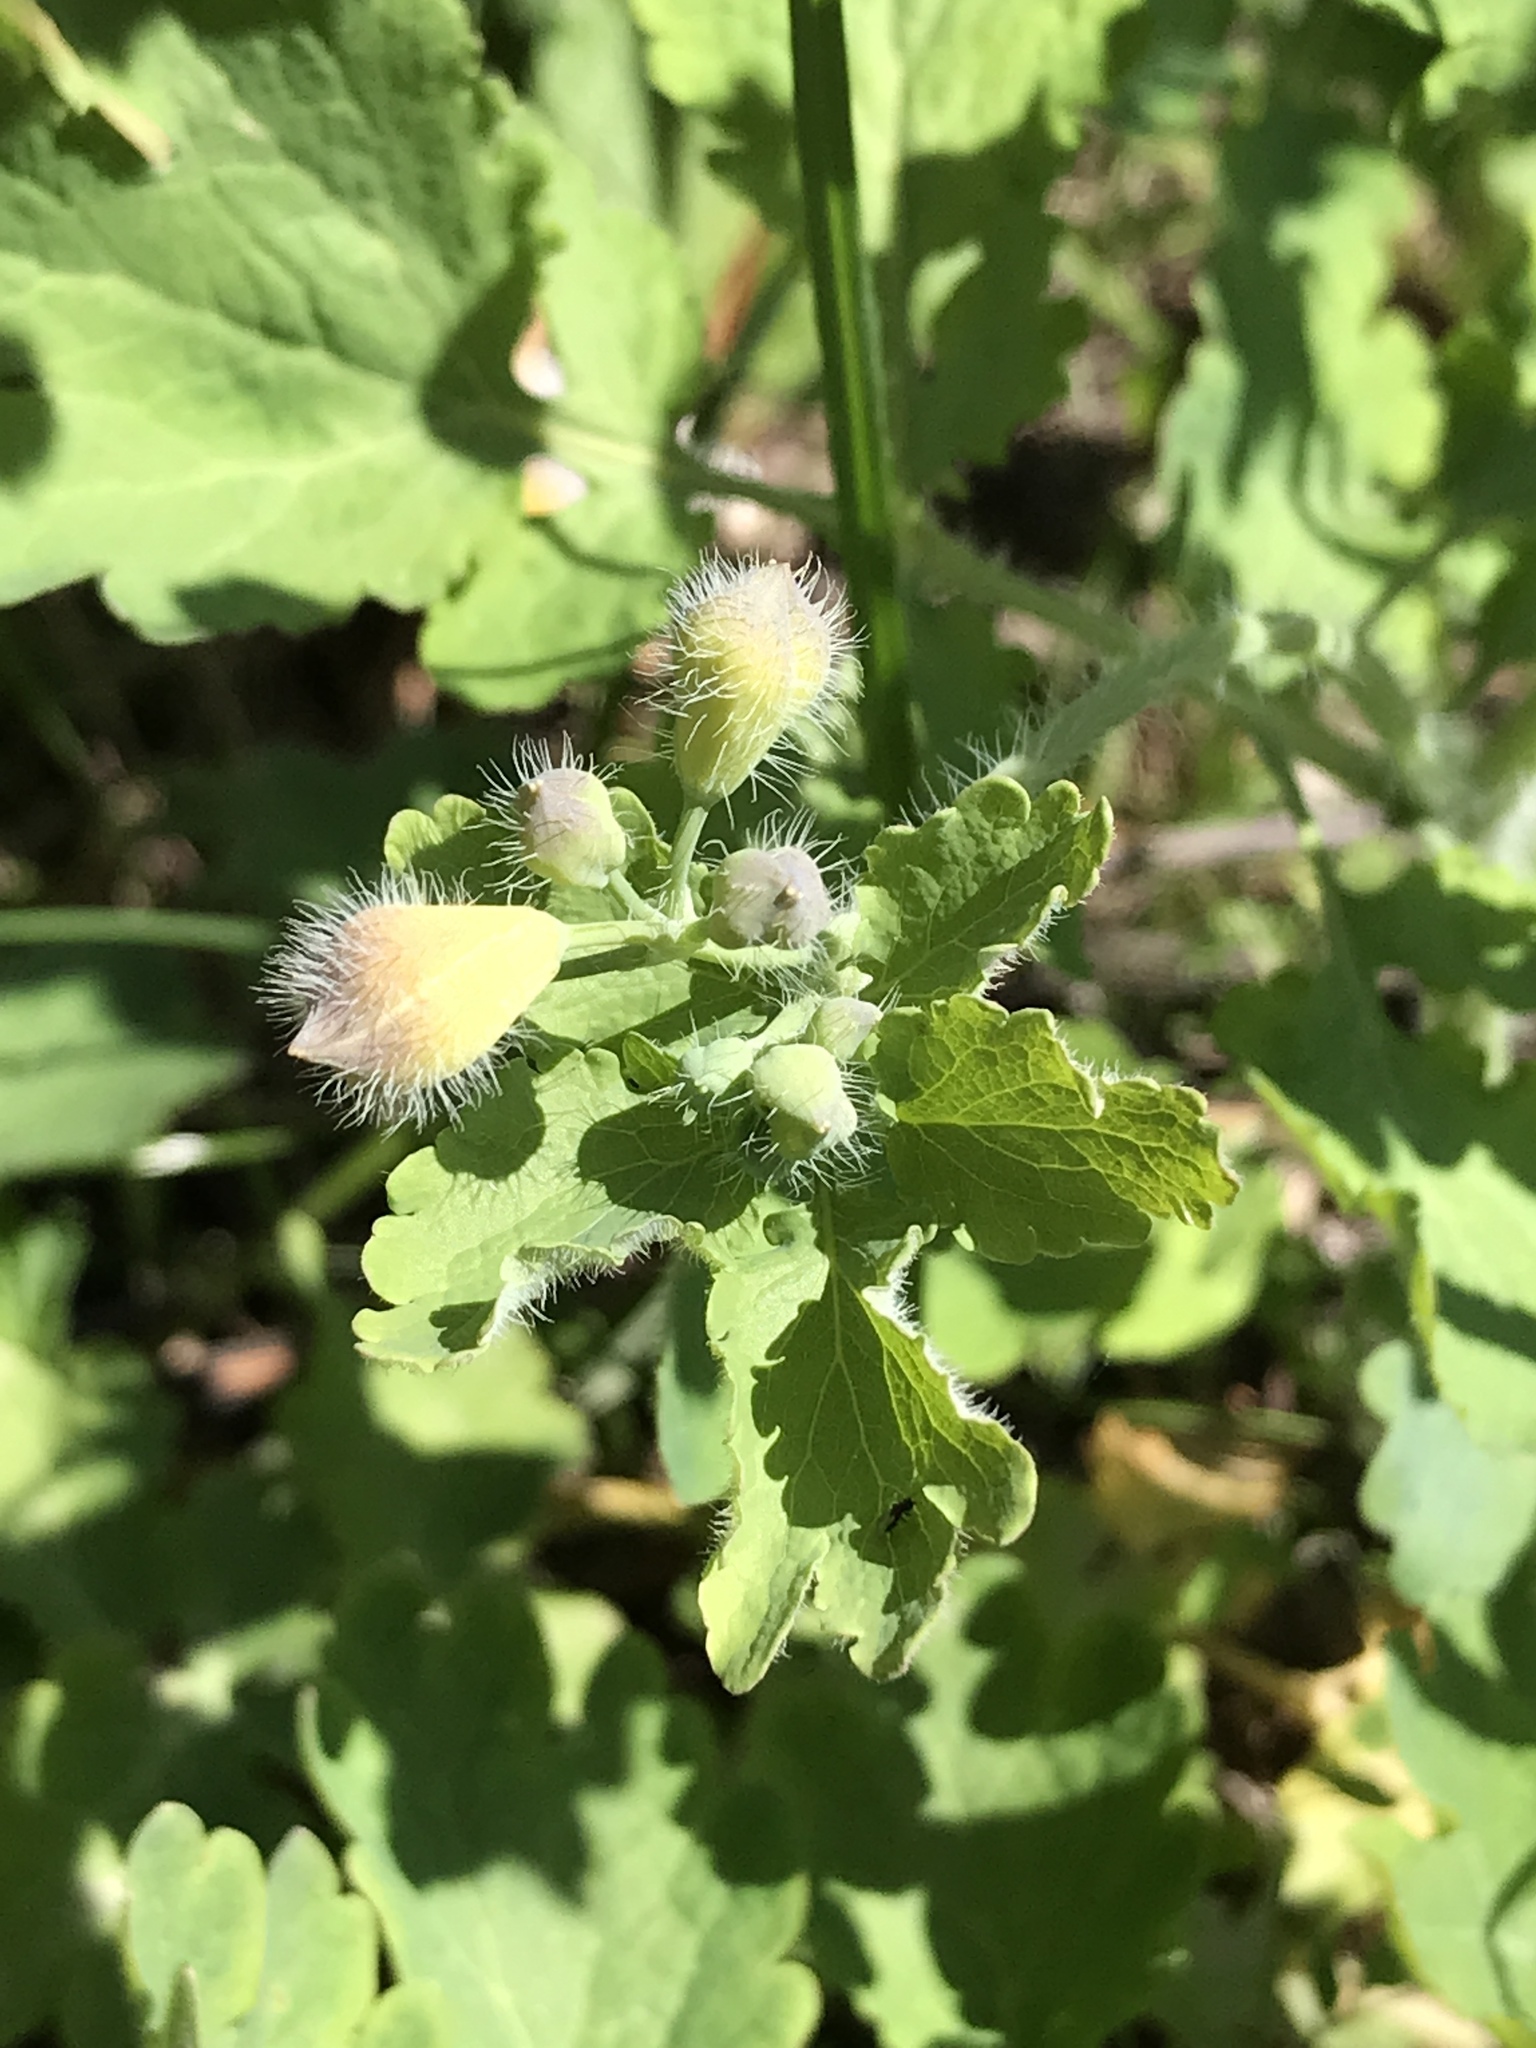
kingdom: Plantae
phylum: Tracheophyta
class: Magnoliopsida
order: Ranunculales
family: Papaveraceae
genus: Chelidonium
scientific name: Chelidonium majus
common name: Greater celandine
